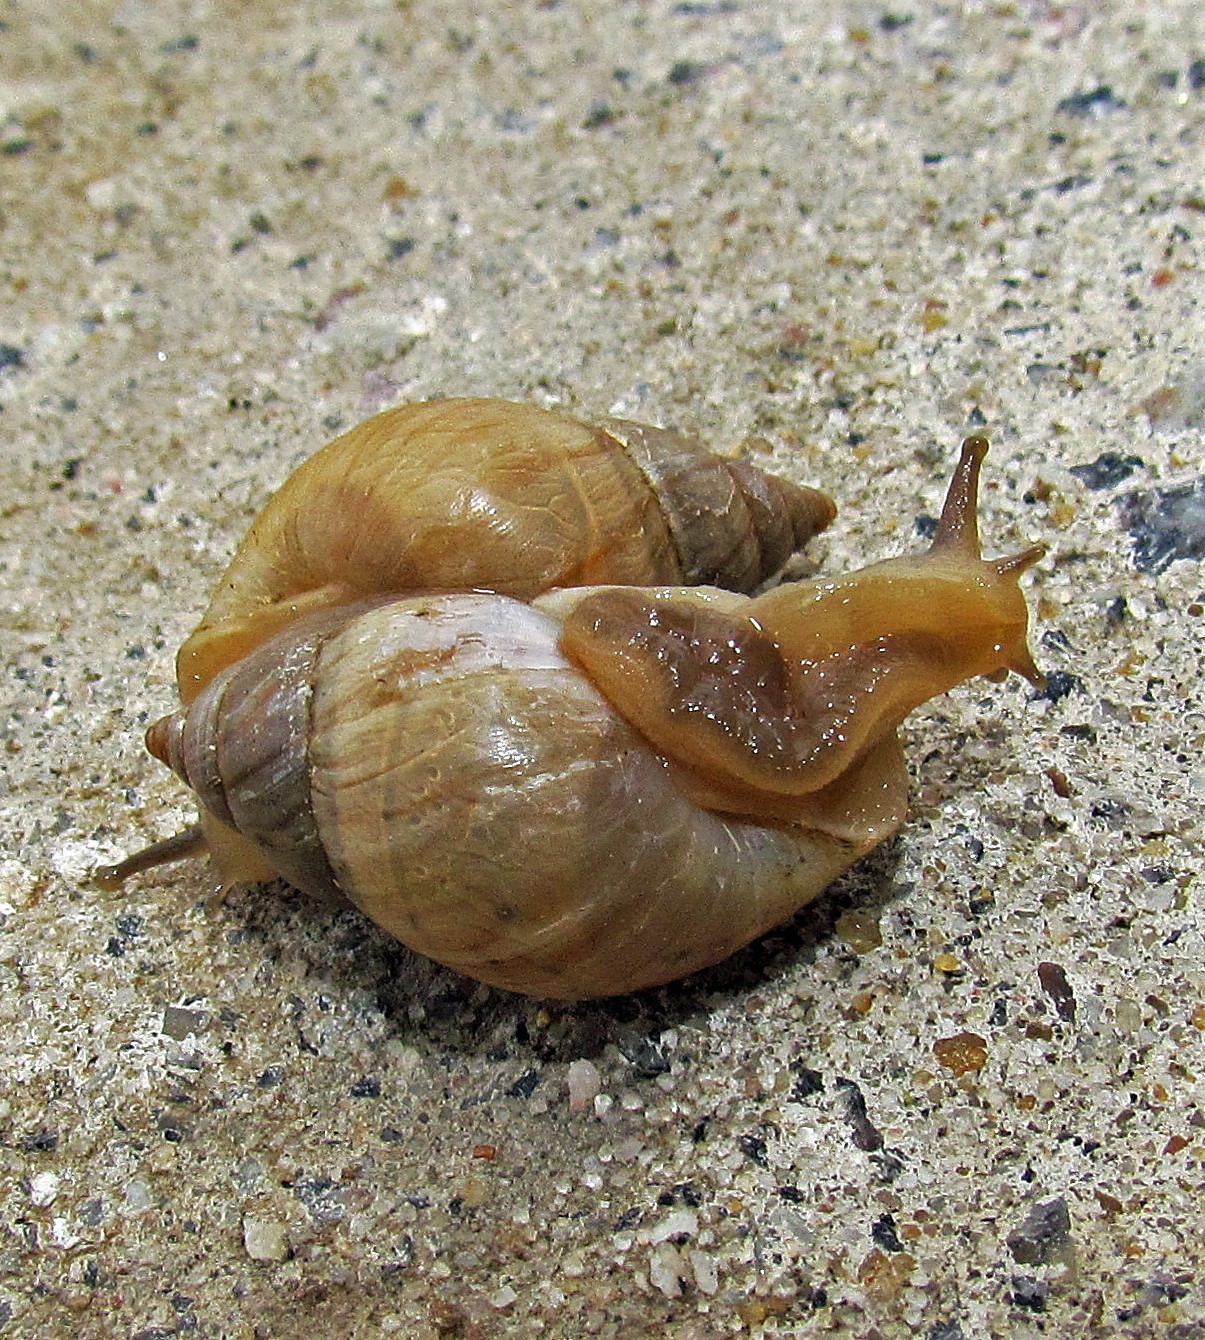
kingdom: Animalia
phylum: Mollusca
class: Gastropoda
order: Stylommatophora
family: Bulimulidae
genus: Bulimulus
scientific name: Bulimulus bonariensis
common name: Snail
